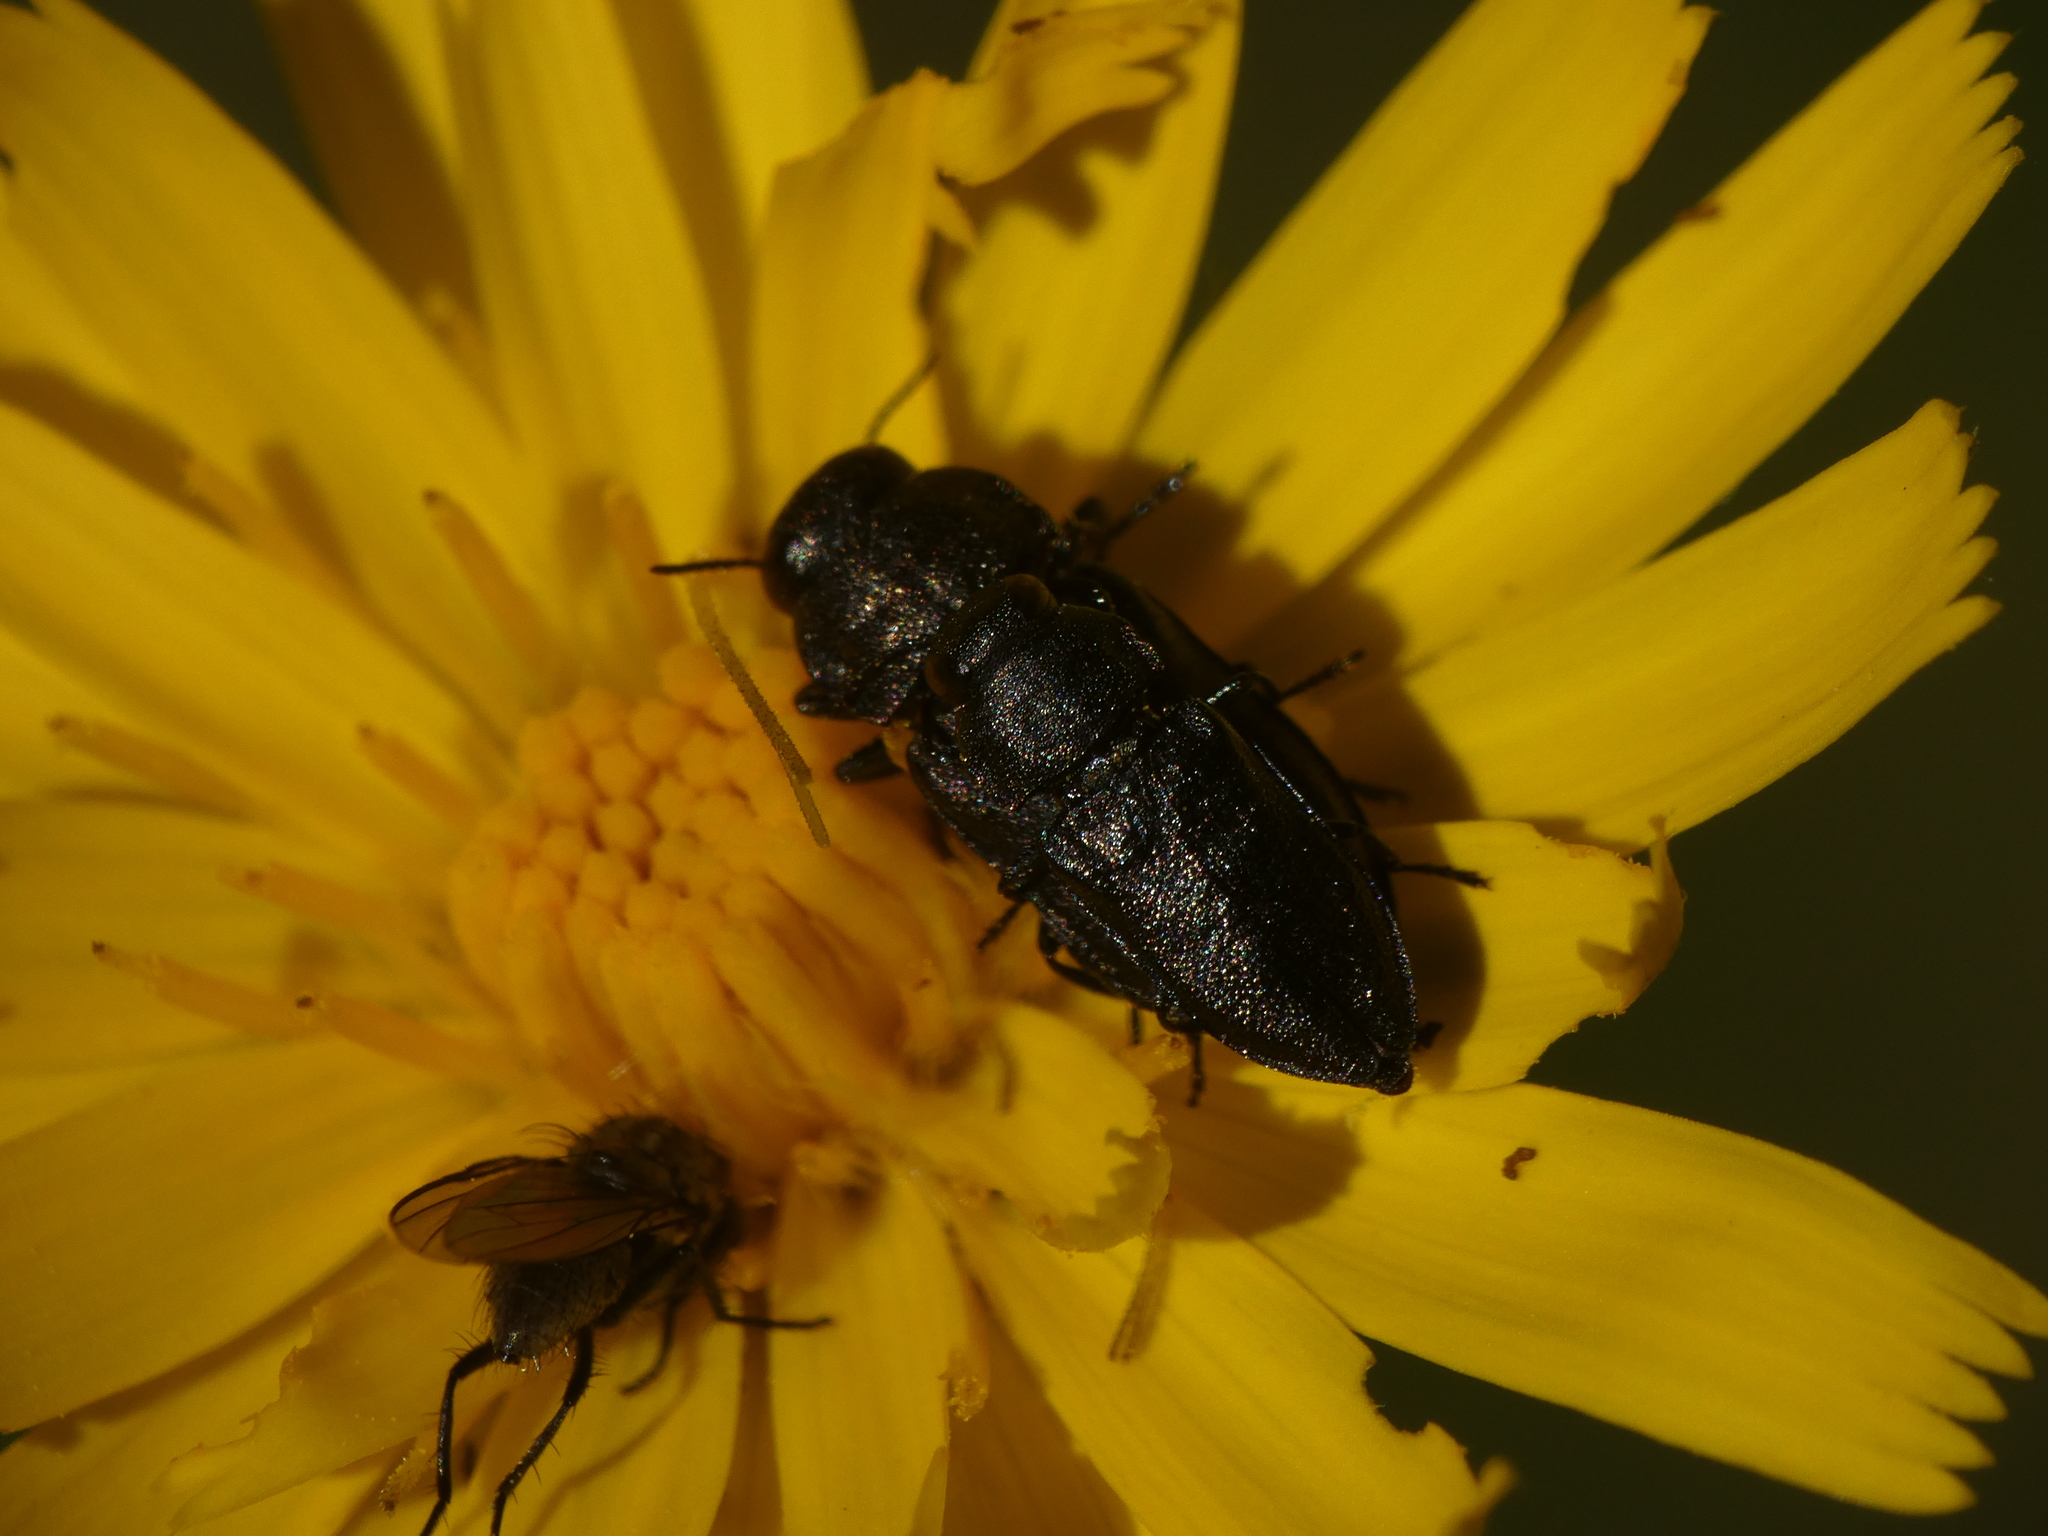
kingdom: Animalia
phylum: Arthropoda
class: Insecta
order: Coleoptera
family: Buprestidae
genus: Anthaxia
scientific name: Anthaxia quadripunctata
